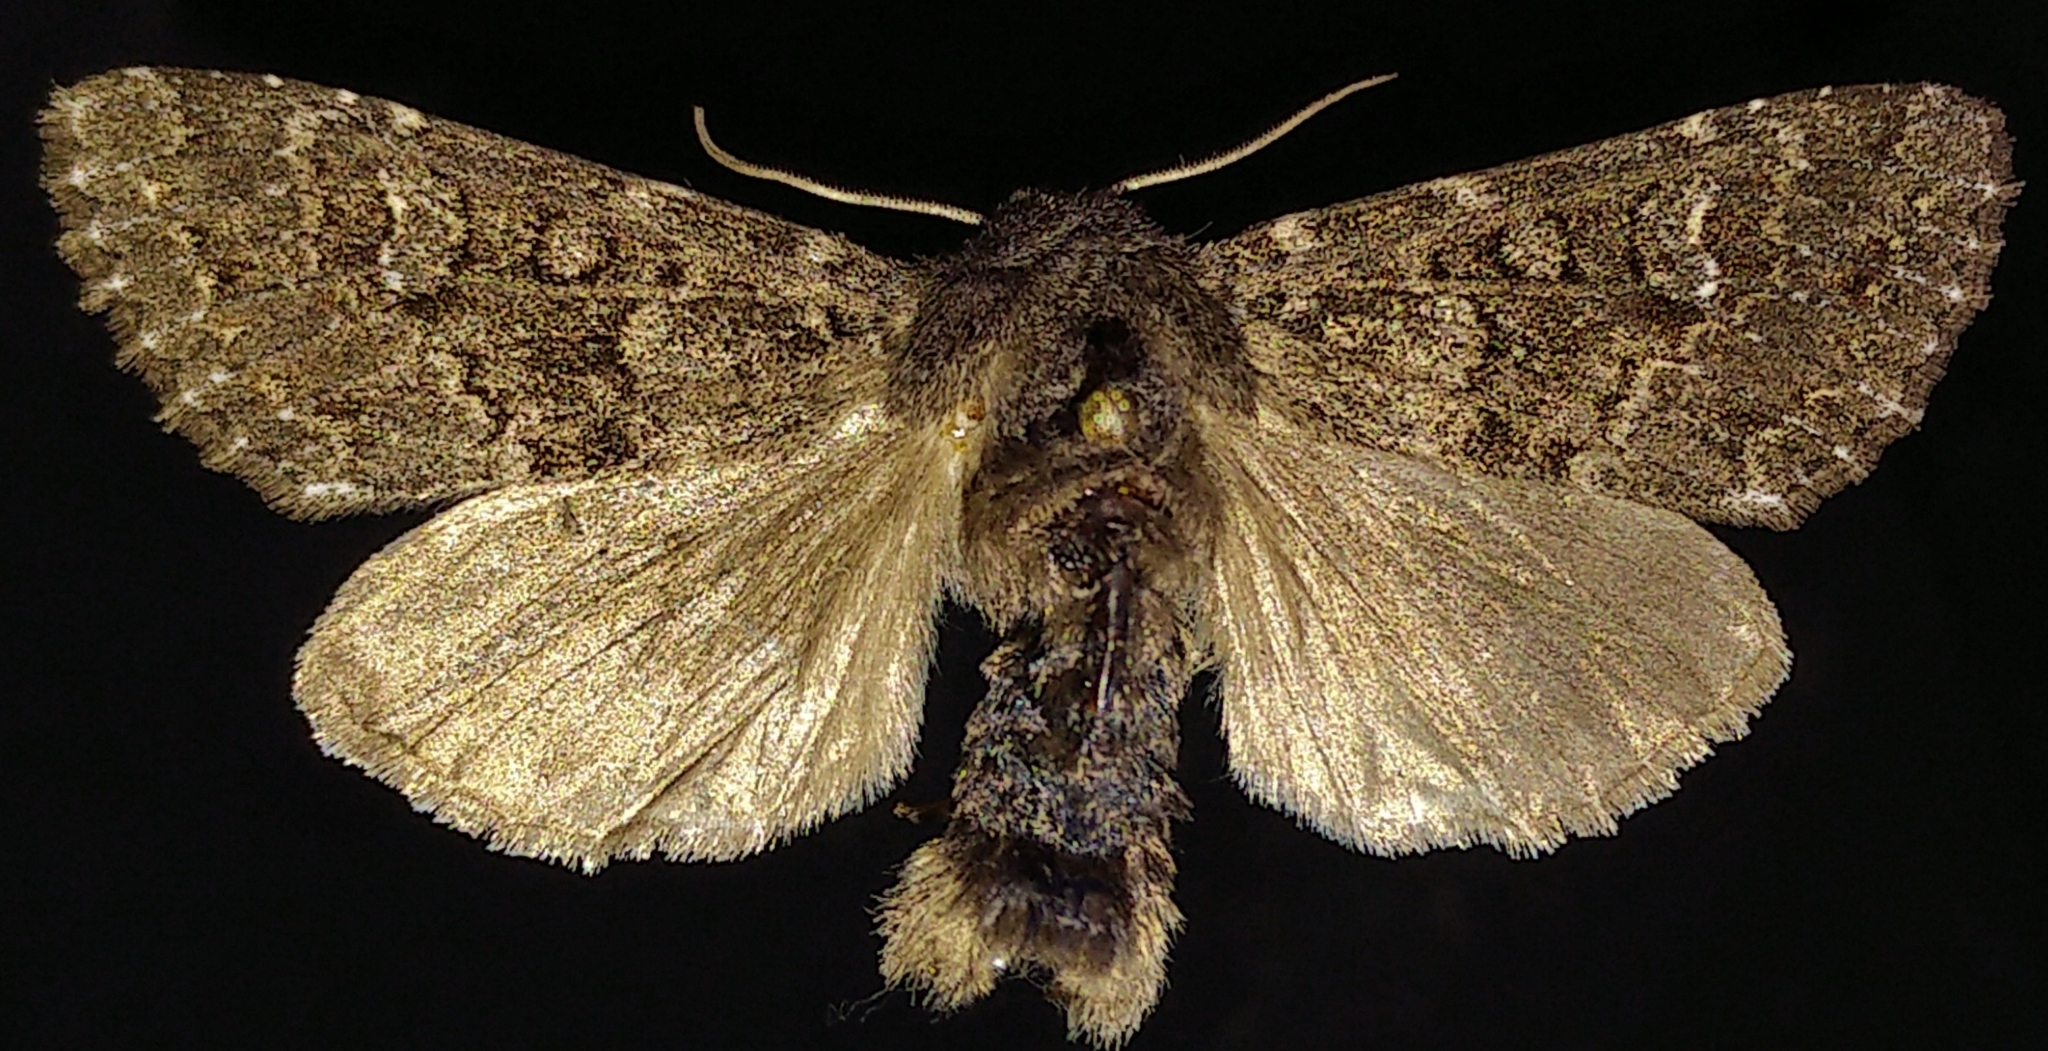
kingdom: Animalia
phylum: Arthropoda
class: Insecta
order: Lepidoptera
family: Noctuidae
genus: Polia
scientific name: Polia rogenhoferi
